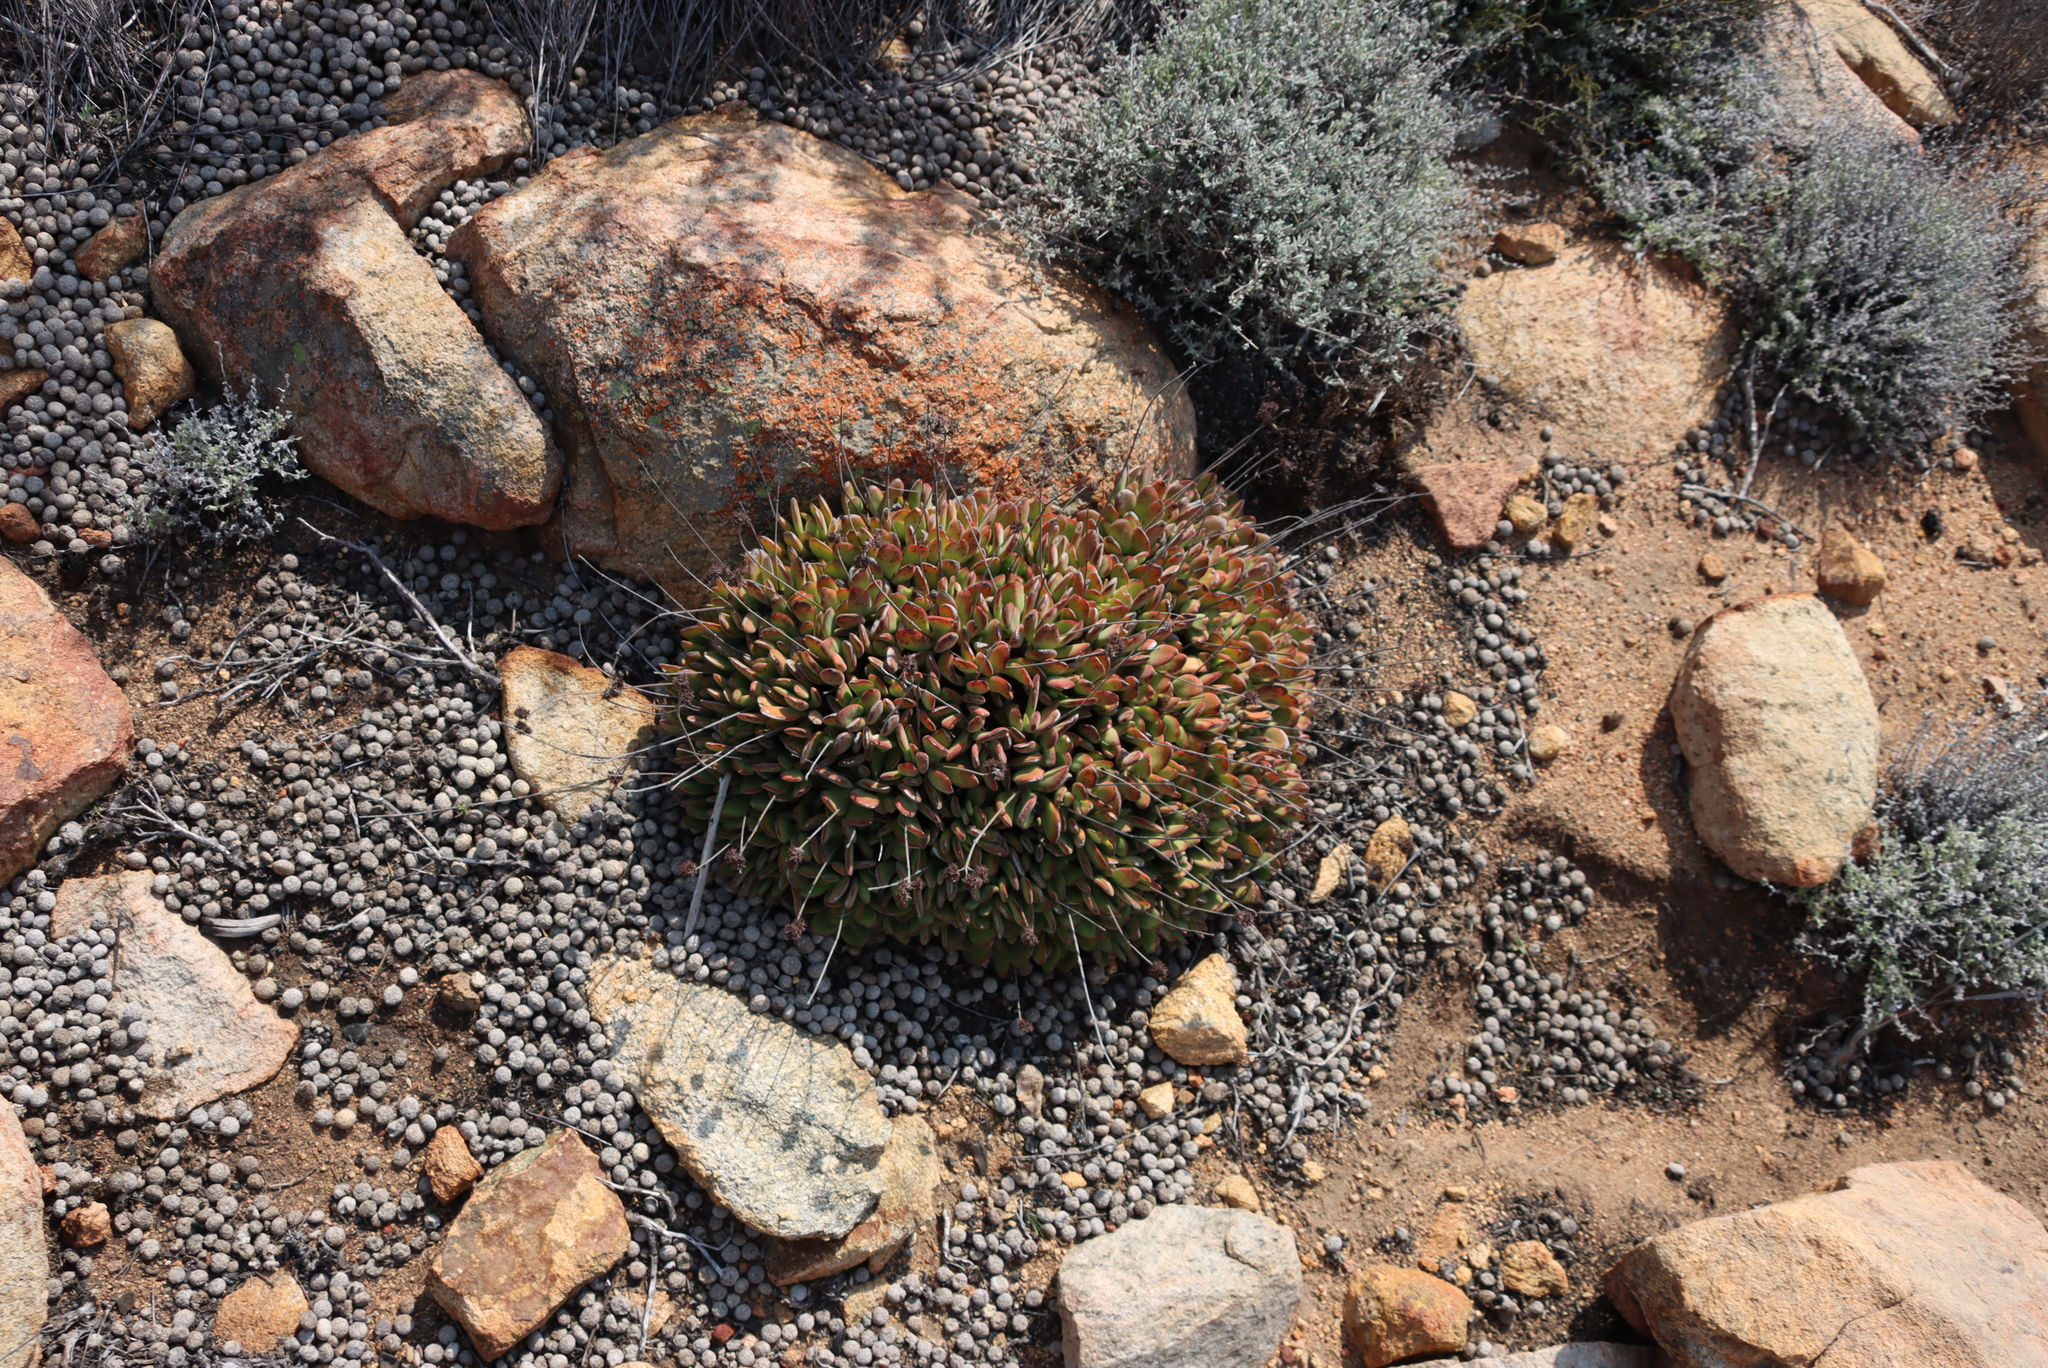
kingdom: Plantae
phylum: Tracheophyta
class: Magnoliopsida
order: Saxifragales
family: Crassulaceae
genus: Crassula
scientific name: Crassula atropurpurea
